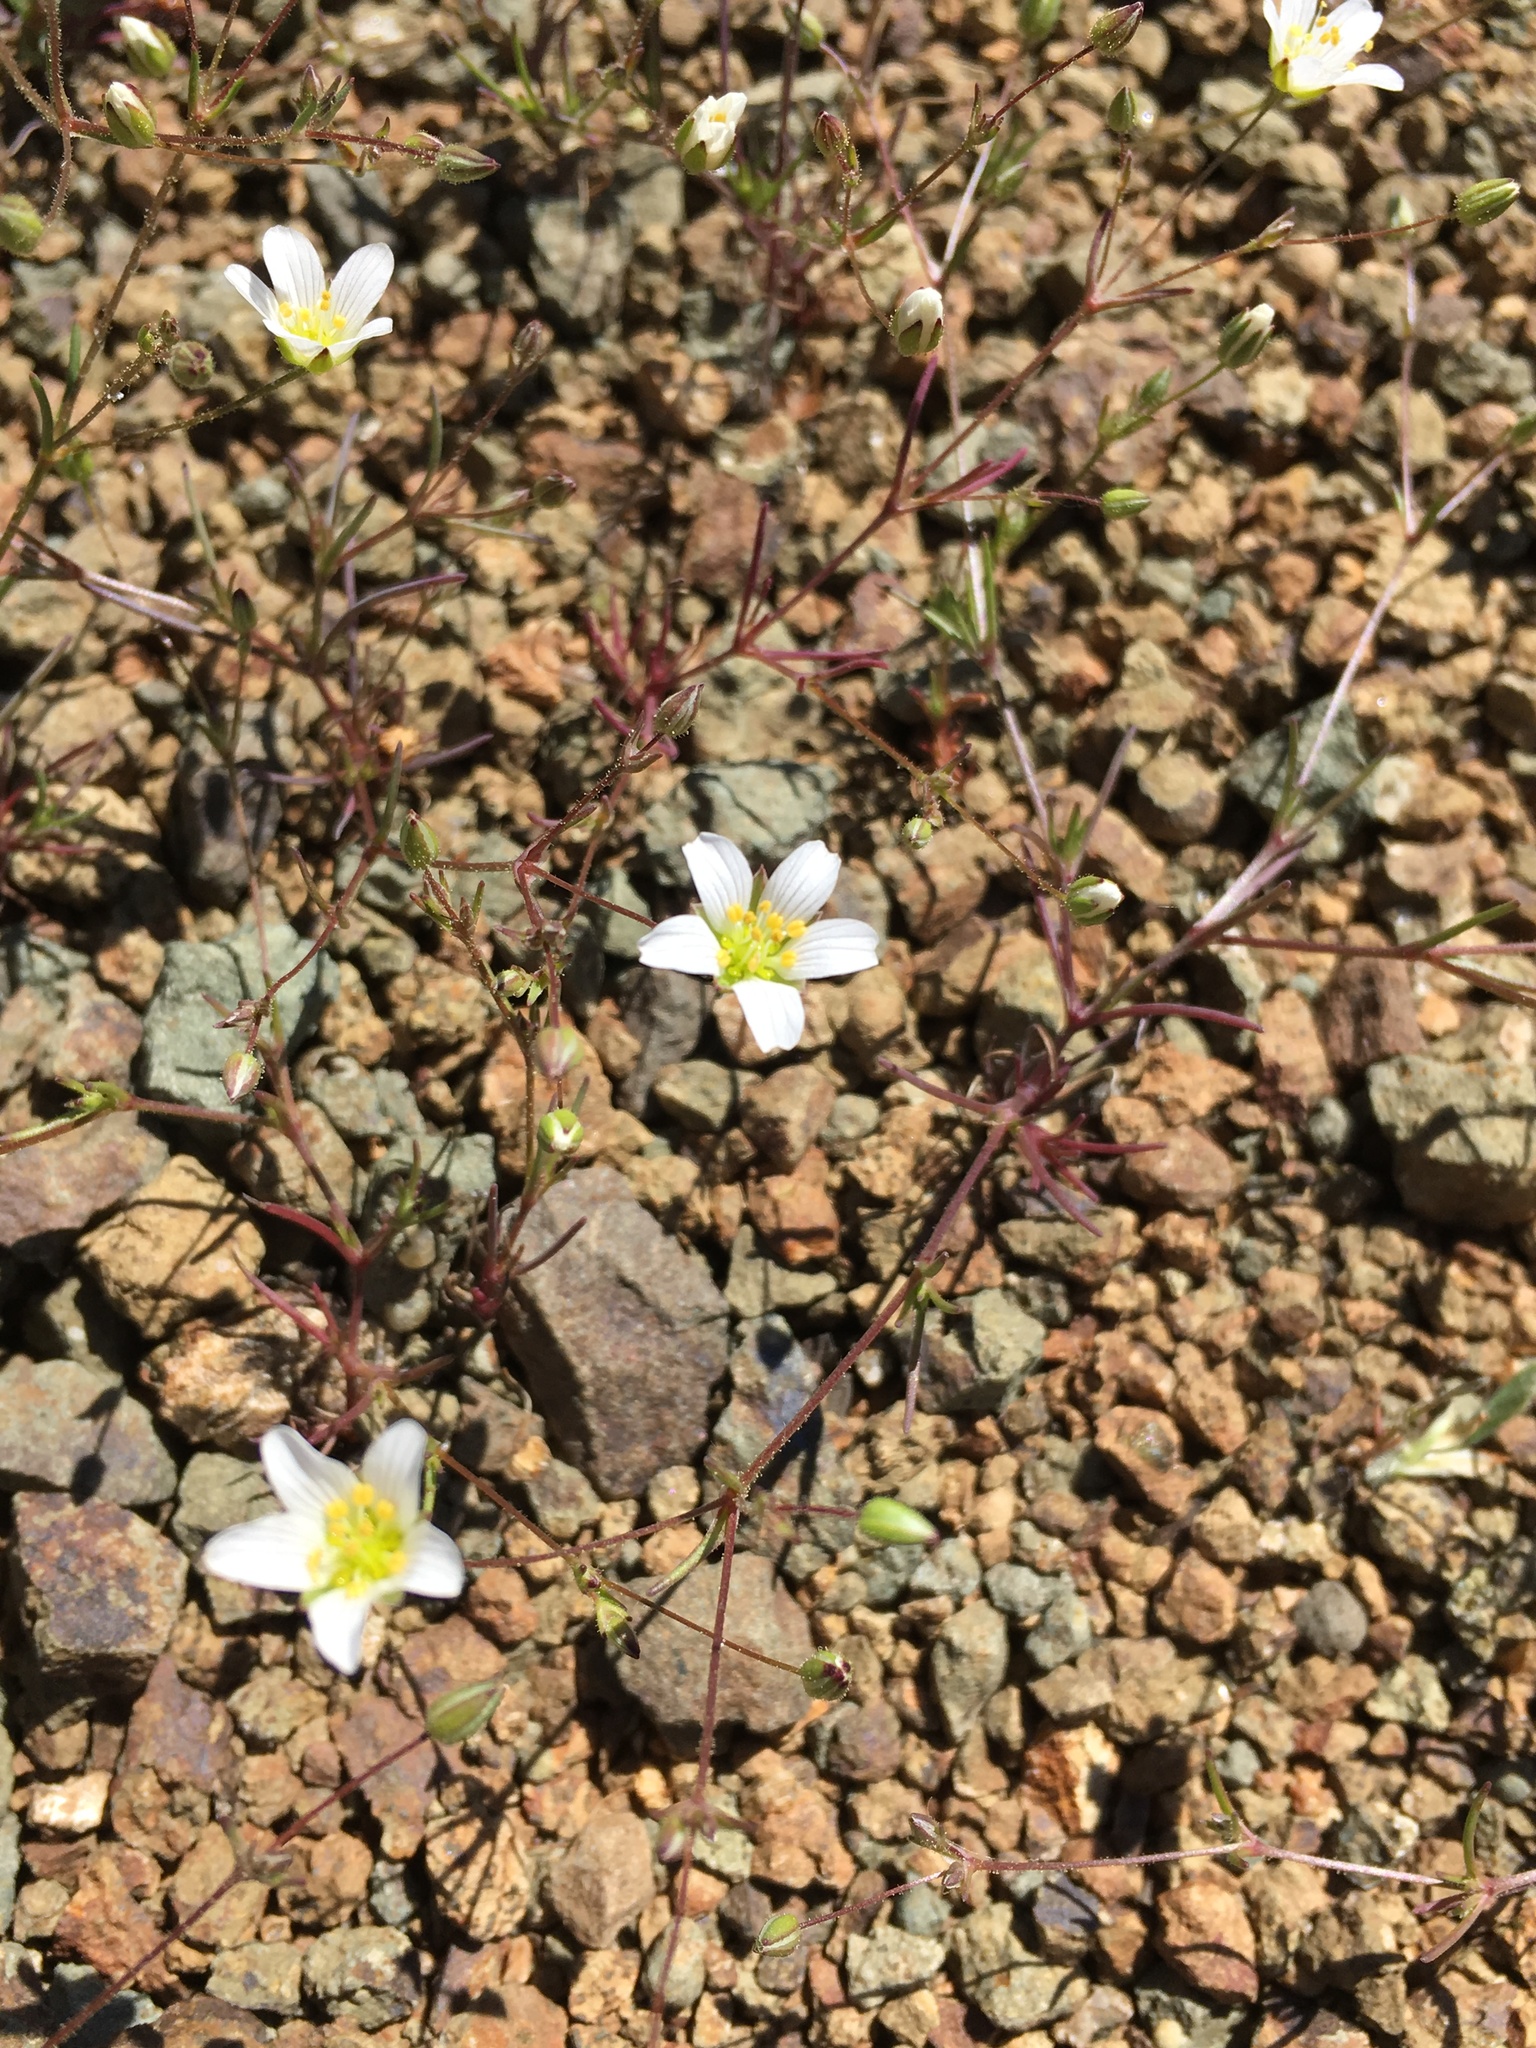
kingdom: Plantae
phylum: Tracheophyta
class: Magnoliopsida
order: Caryophyllales
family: Caryophyllaceae
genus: Sabulina
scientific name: Sabulina douglasii
